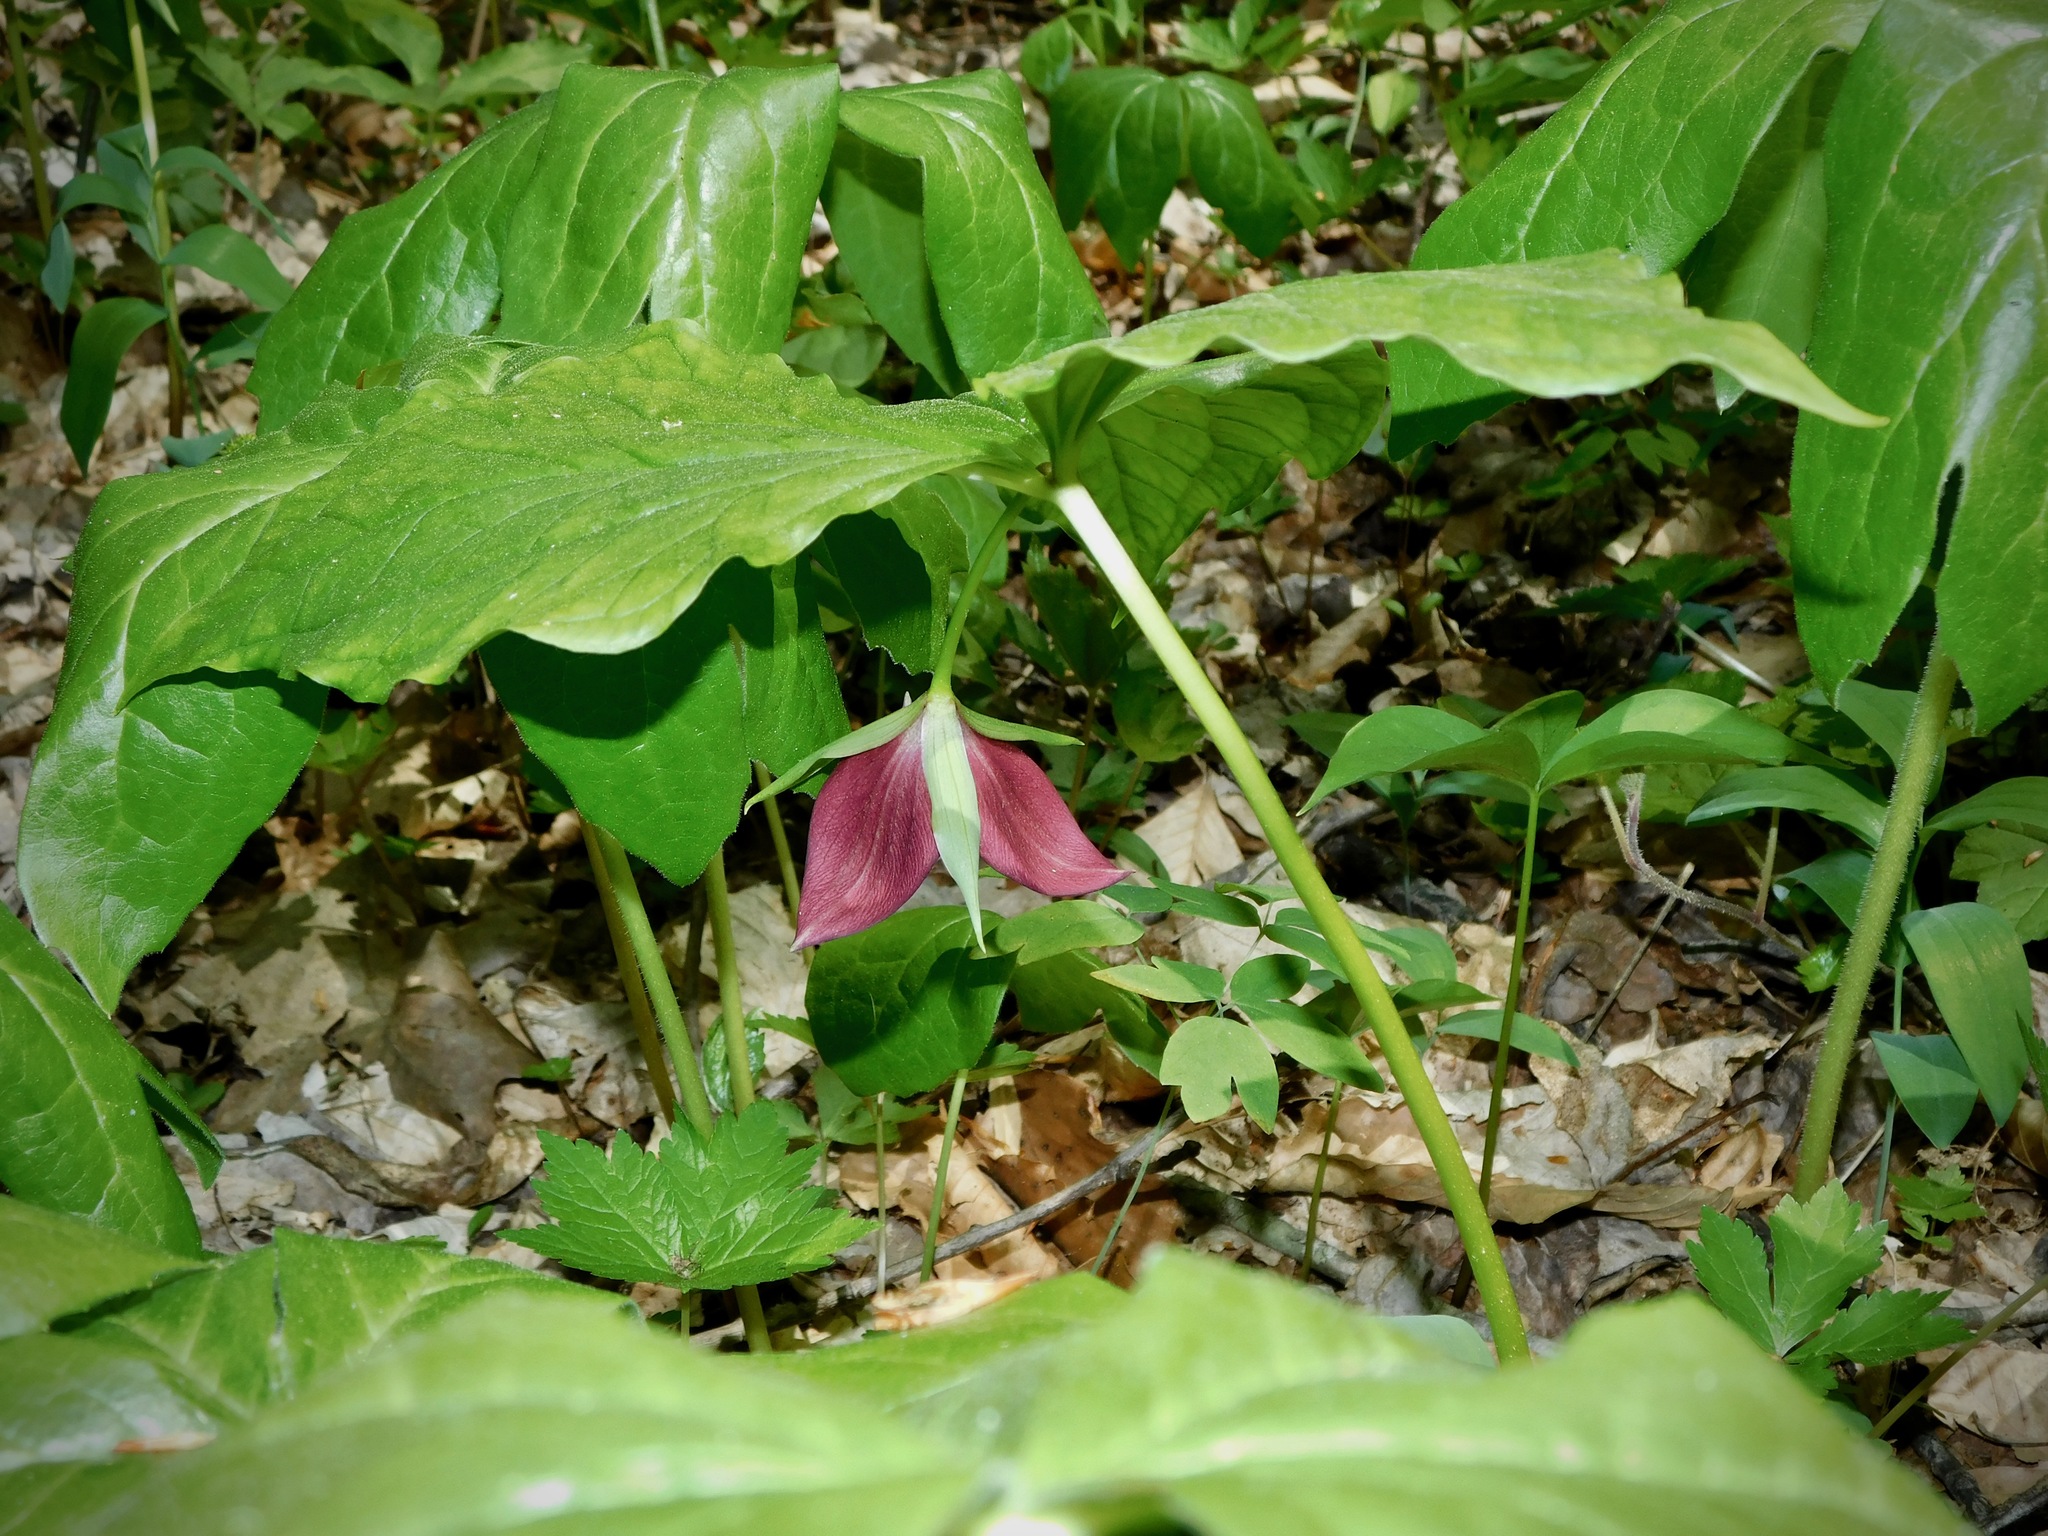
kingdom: Plantae
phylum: Tracheophyta
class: Liliopsida
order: Liliales
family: Melanthiaceae
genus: Trillium
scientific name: Trillium vaseyi
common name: Sweet trillium
